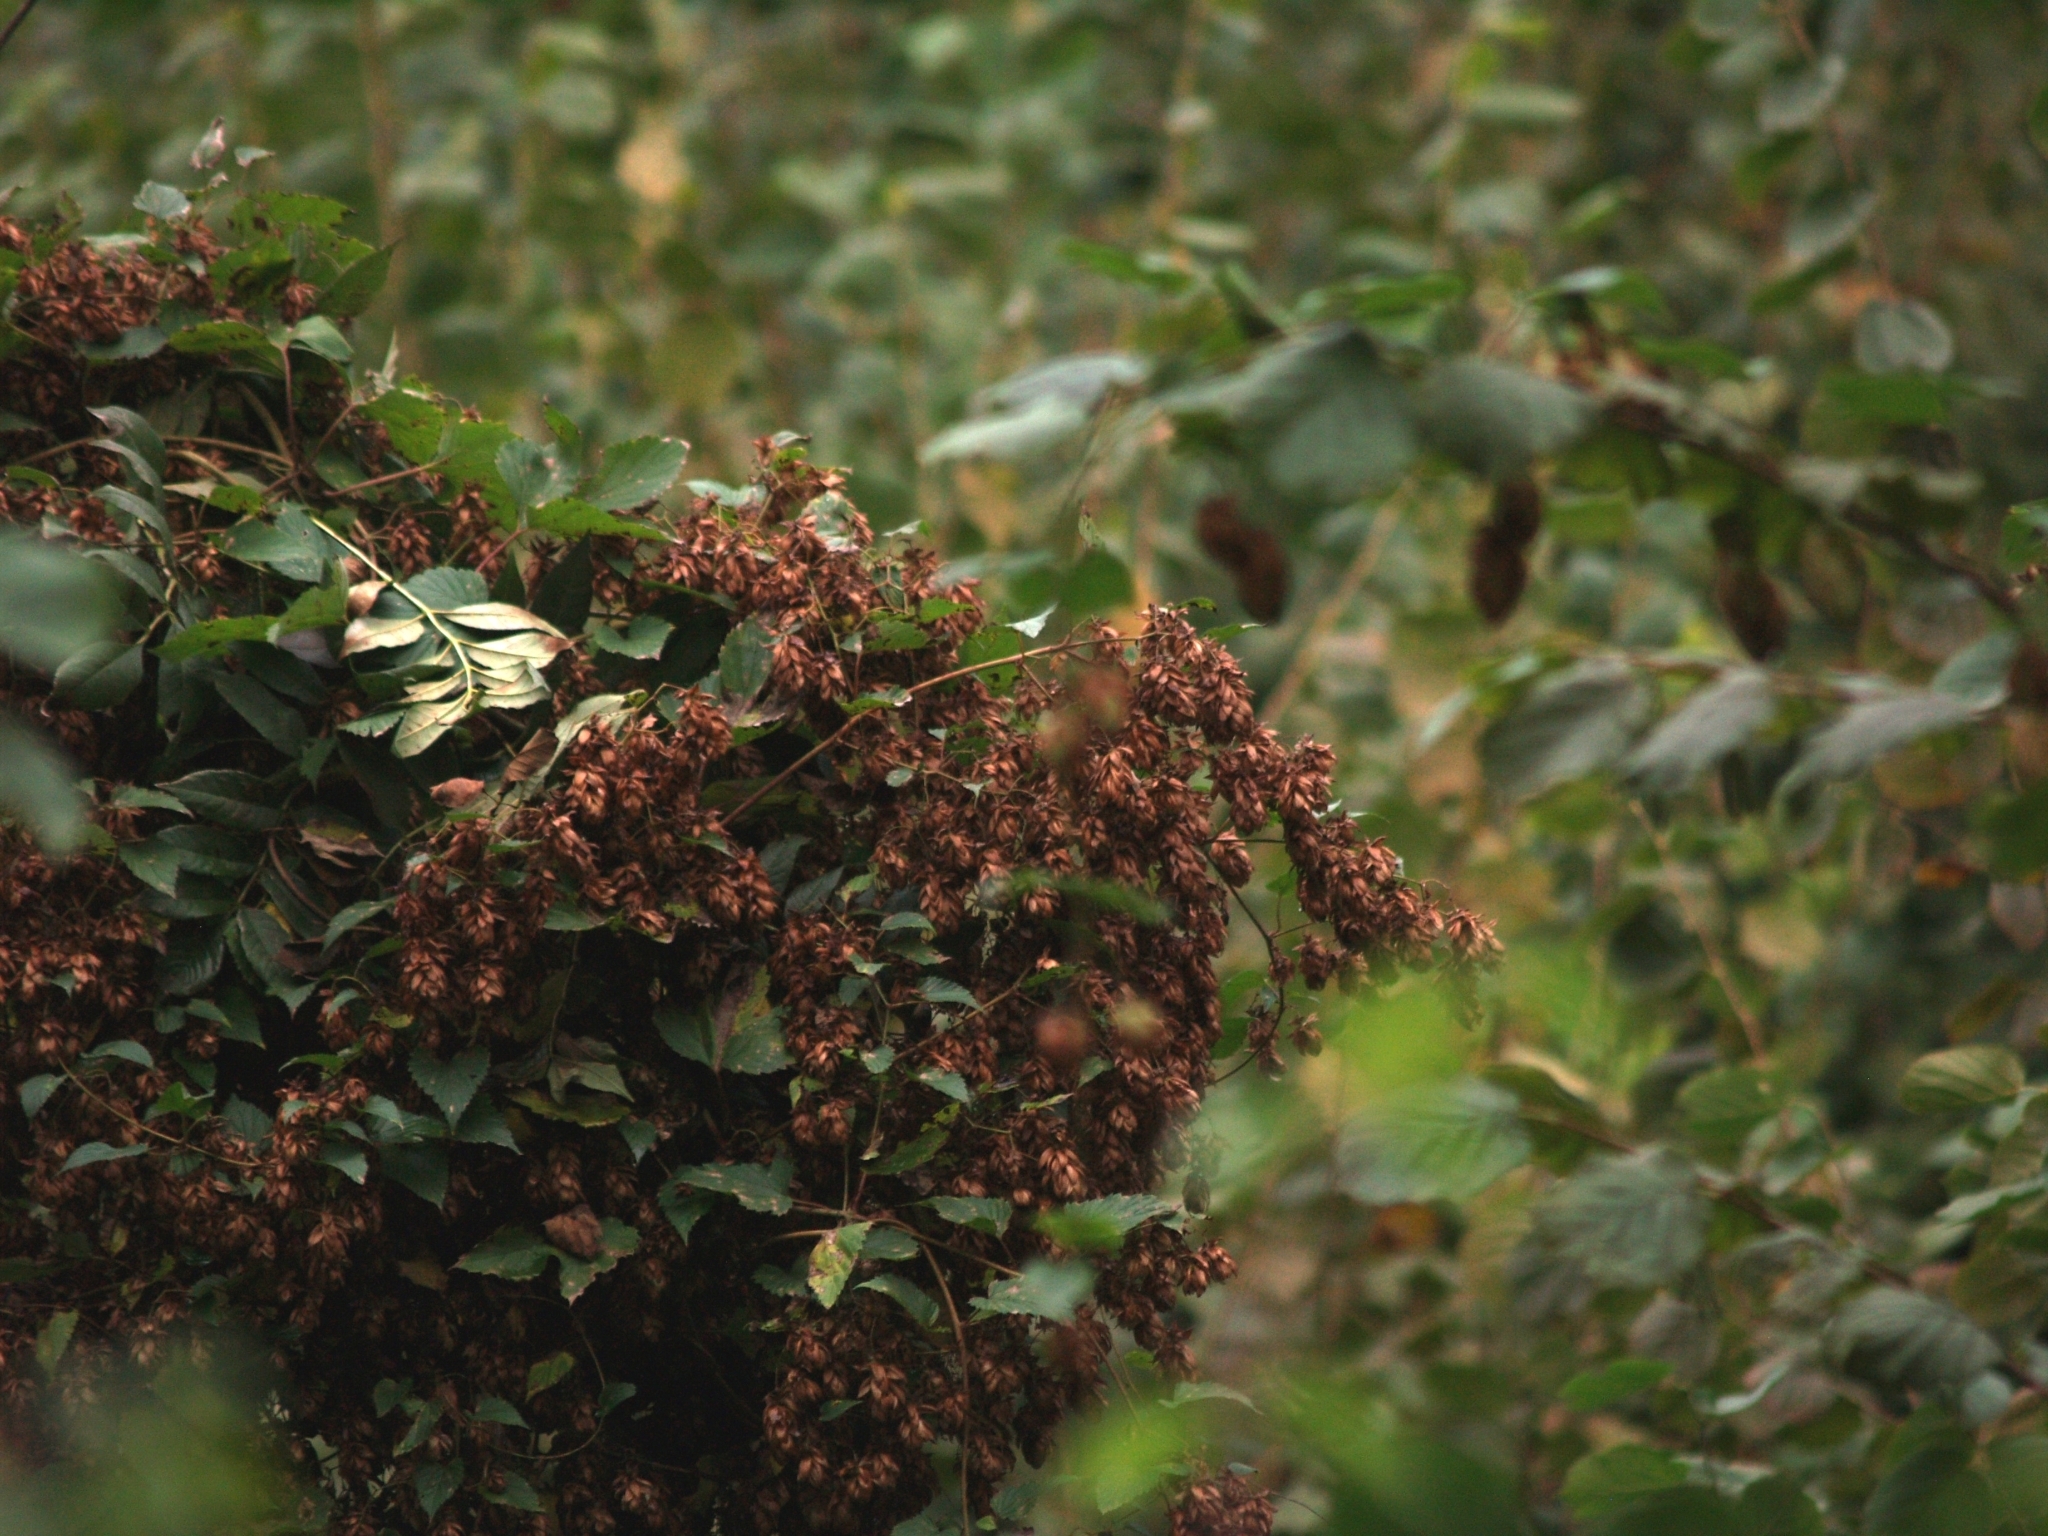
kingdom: Plantae
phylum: Tracheophyta
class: Magnoliopsida
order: Rosales
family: Cannabaceae
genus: Humulus
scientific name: Humulus lupulus
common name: Hop
